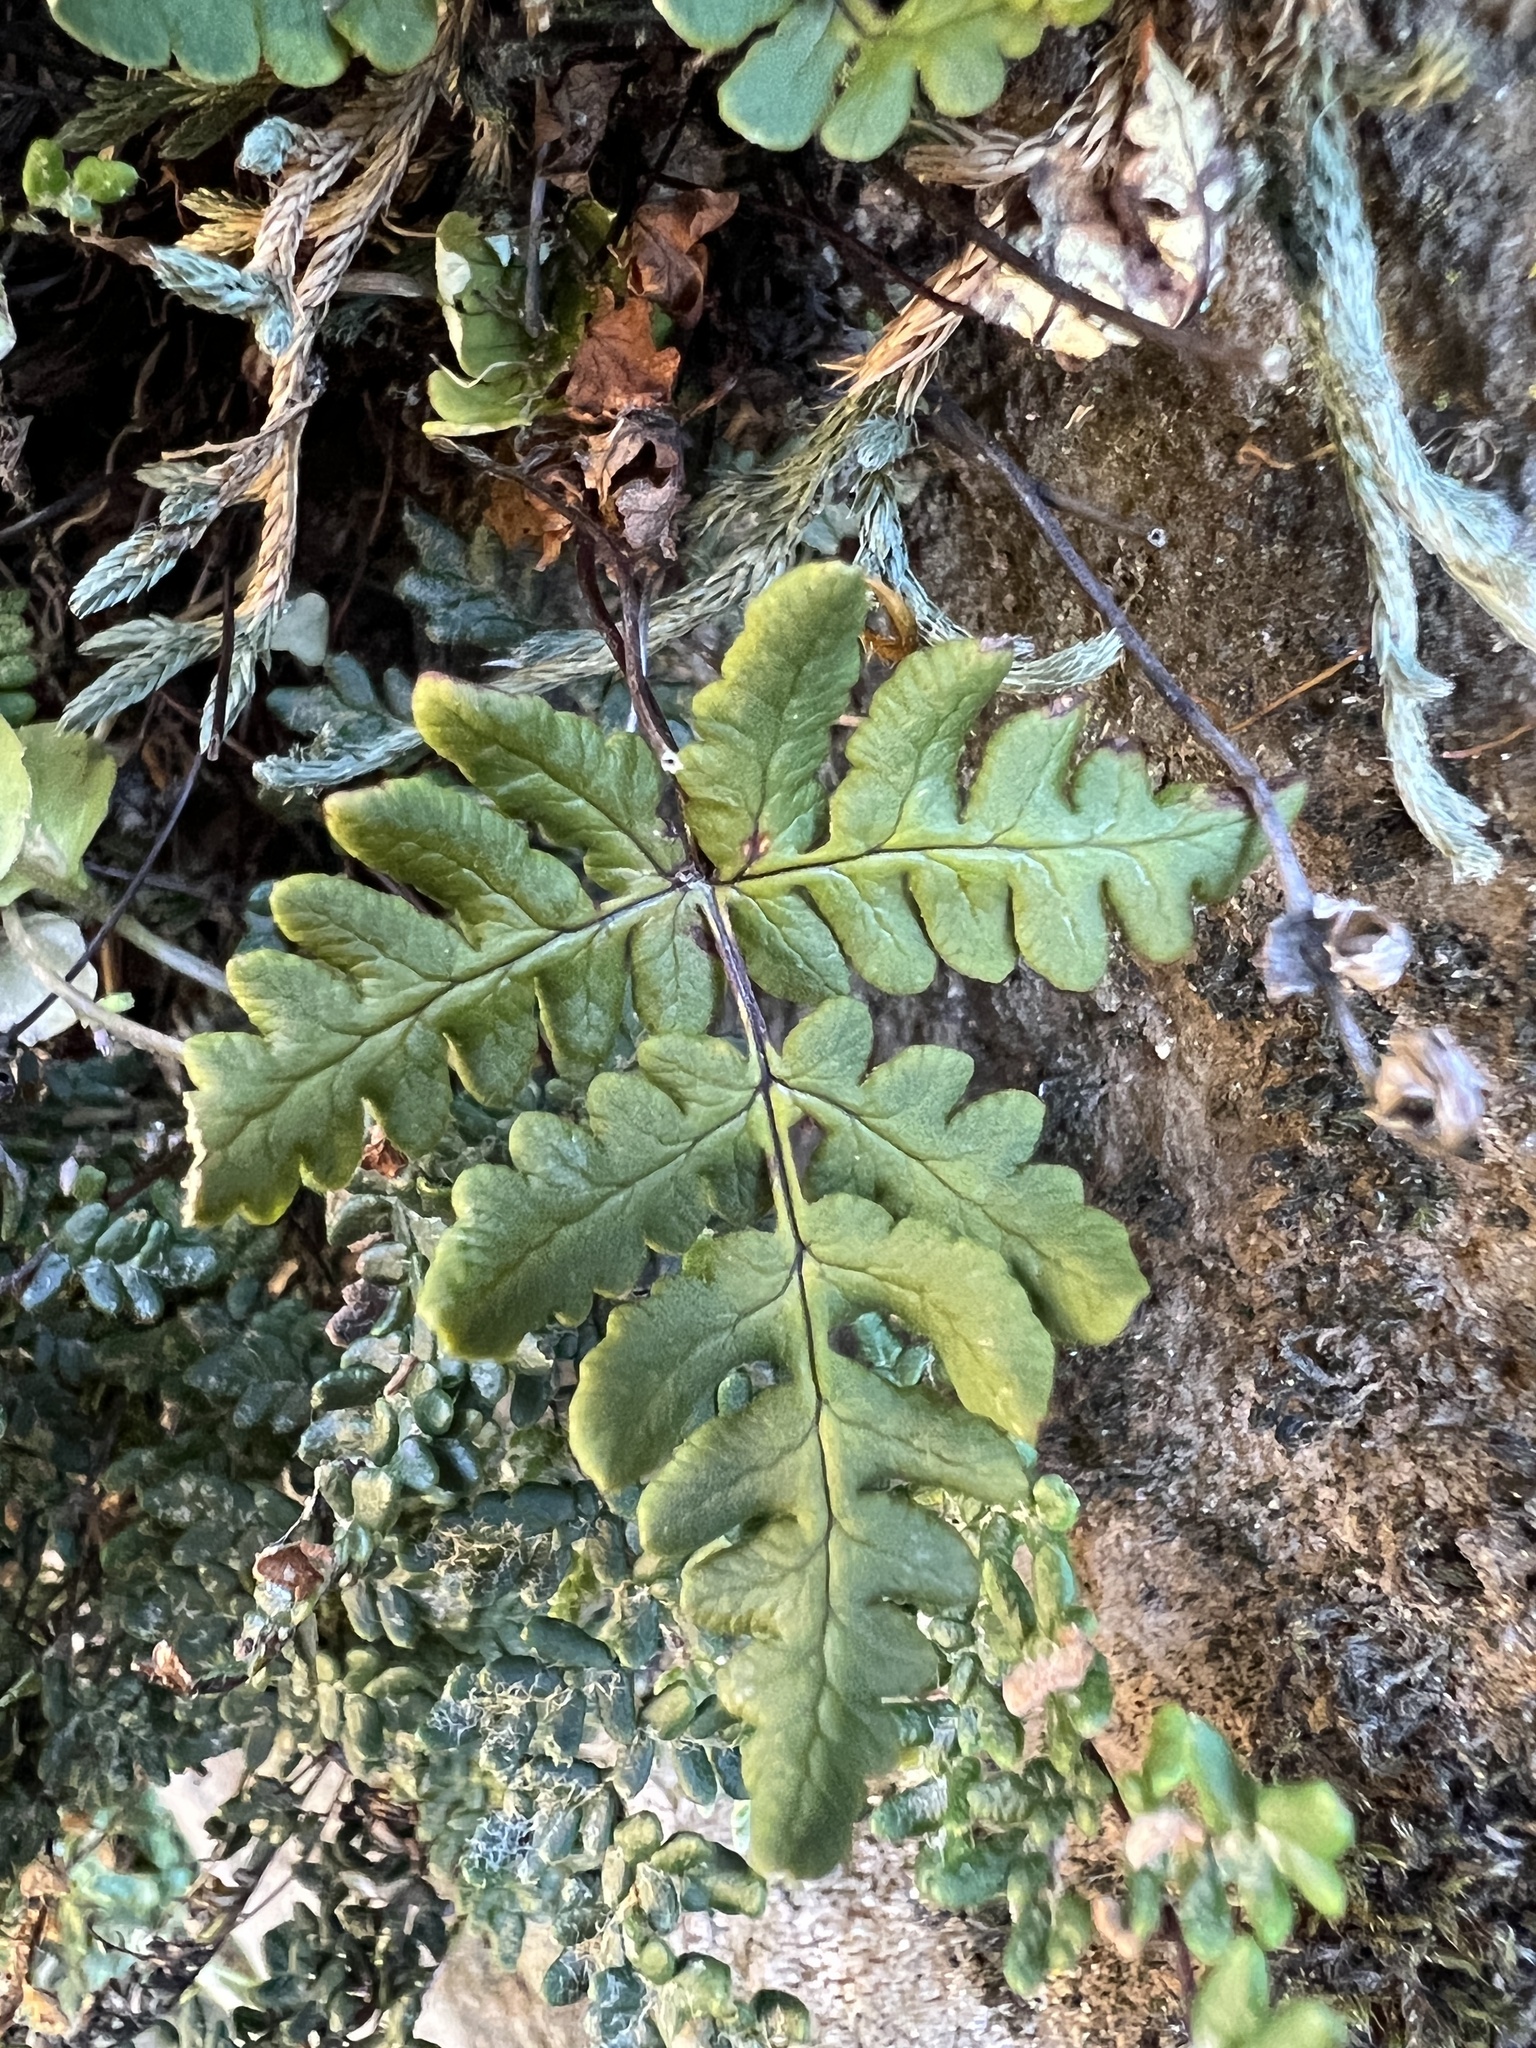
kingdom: Plantae
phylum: Tracheophyta
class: Polypodiopsida
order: Polypodiales
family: Pteridaceae
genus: Pentagramma
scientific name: Pentagramma triangularis
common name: Gold fern
